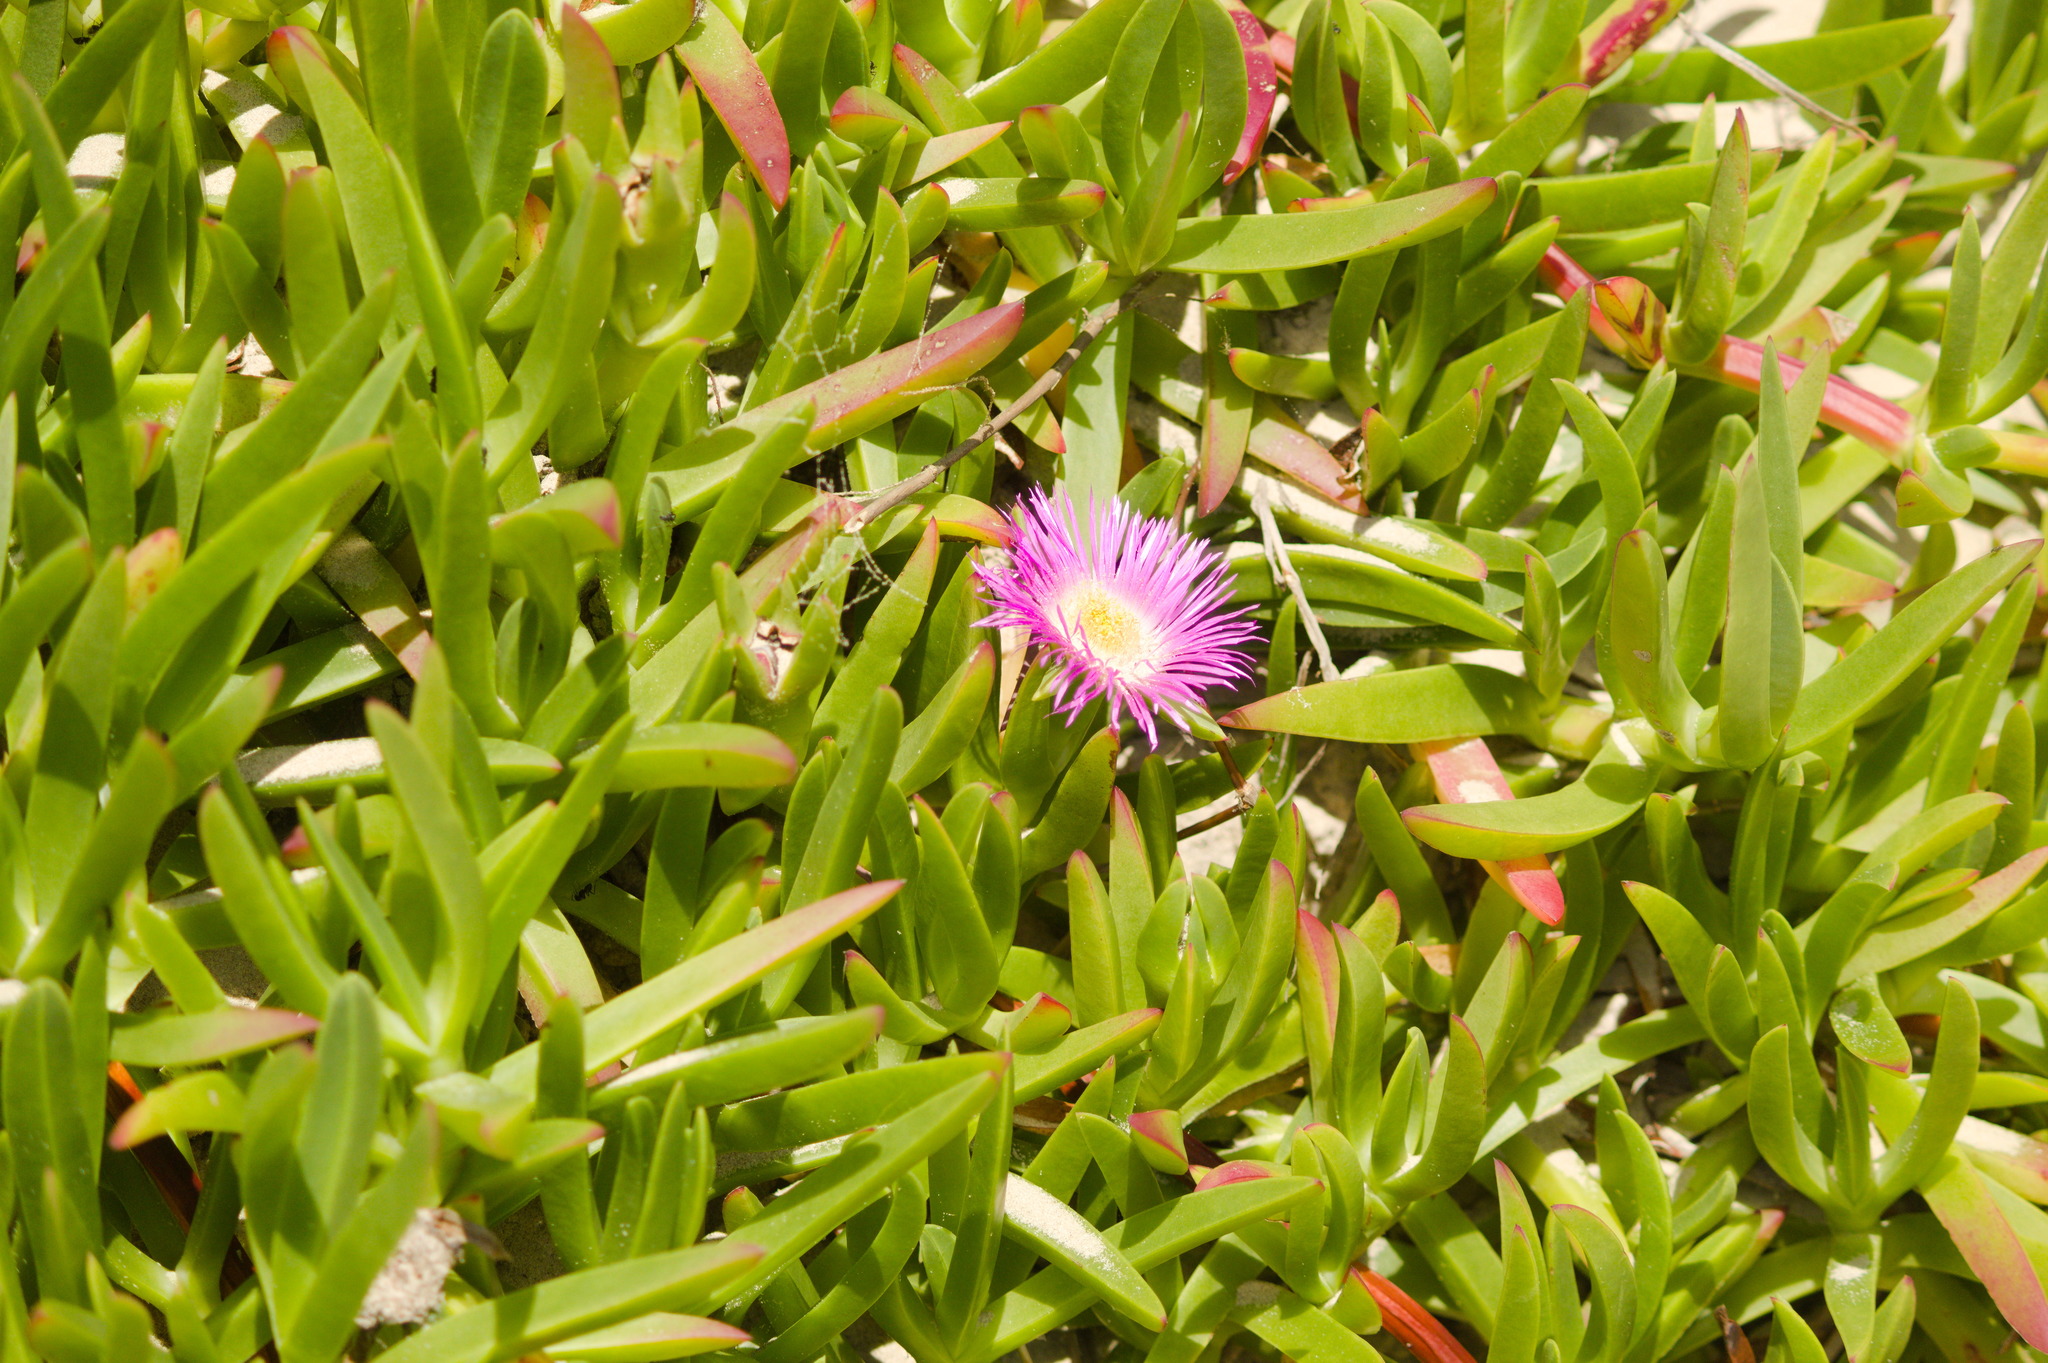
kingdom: Plantae
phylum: Tracheophyta
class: Magnoliopsida
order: Caryophyllales
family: Aizoaceae
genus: Carpobrotus
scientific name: Carpobrotus acinaciformis
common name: Sally-my-handsome
